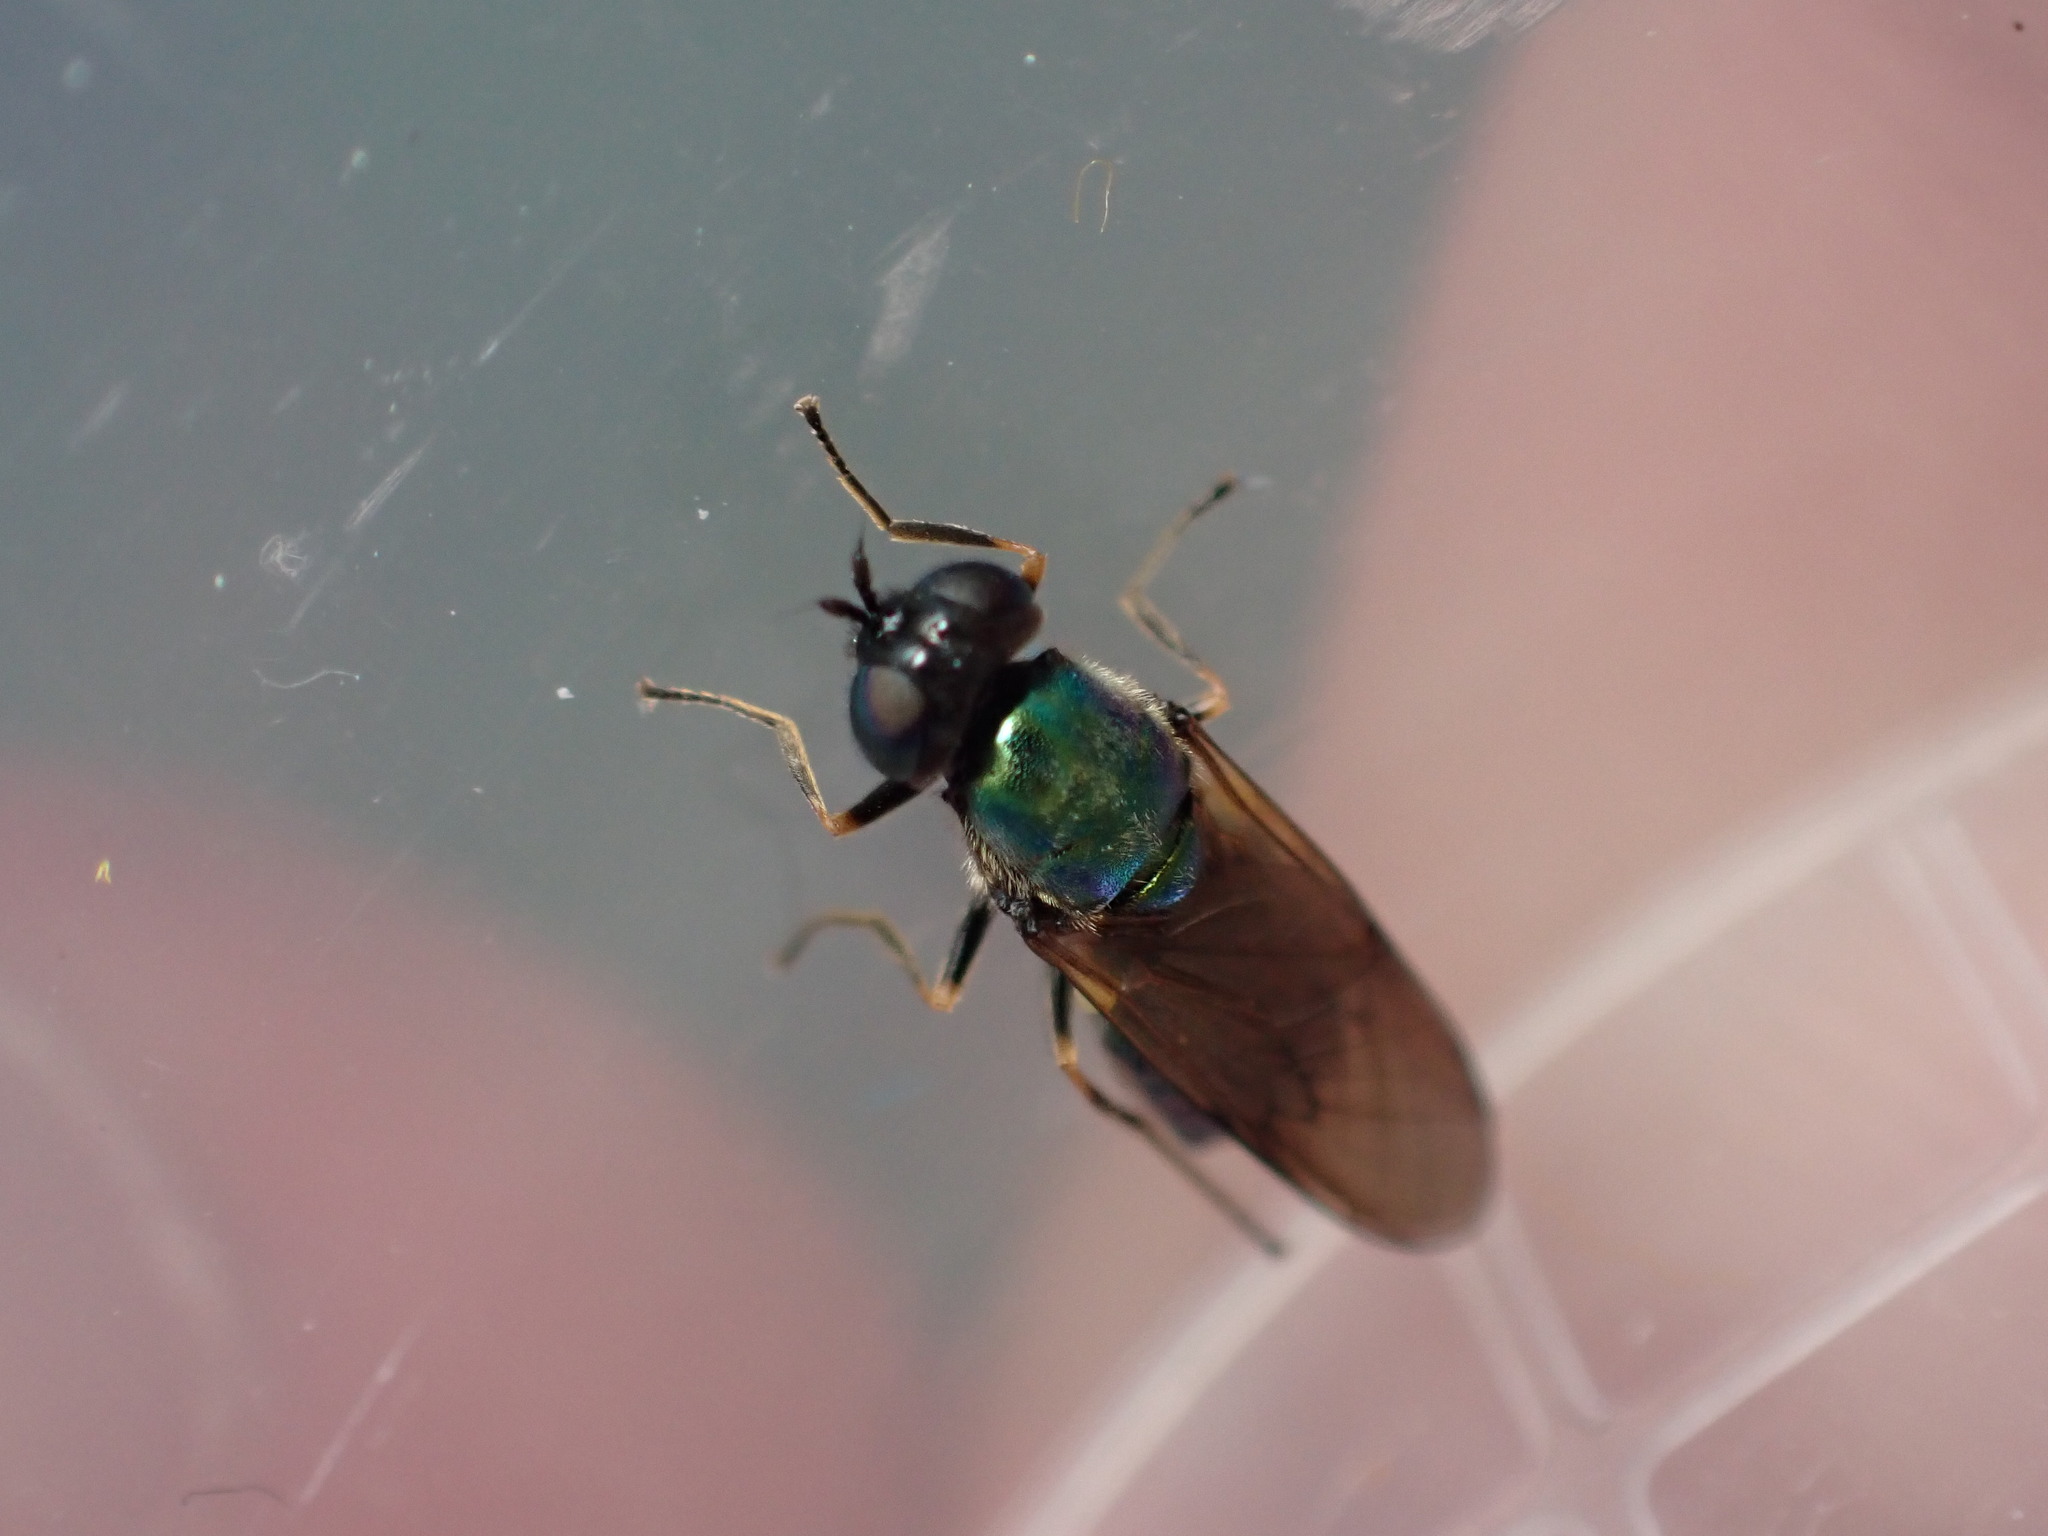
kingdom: Animalia
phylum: Arthropoda
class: Insecta
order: Diptera
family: Stratiomyidae
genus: Chloromyia
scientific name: Chloromyia formosa
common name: Soldier fly
